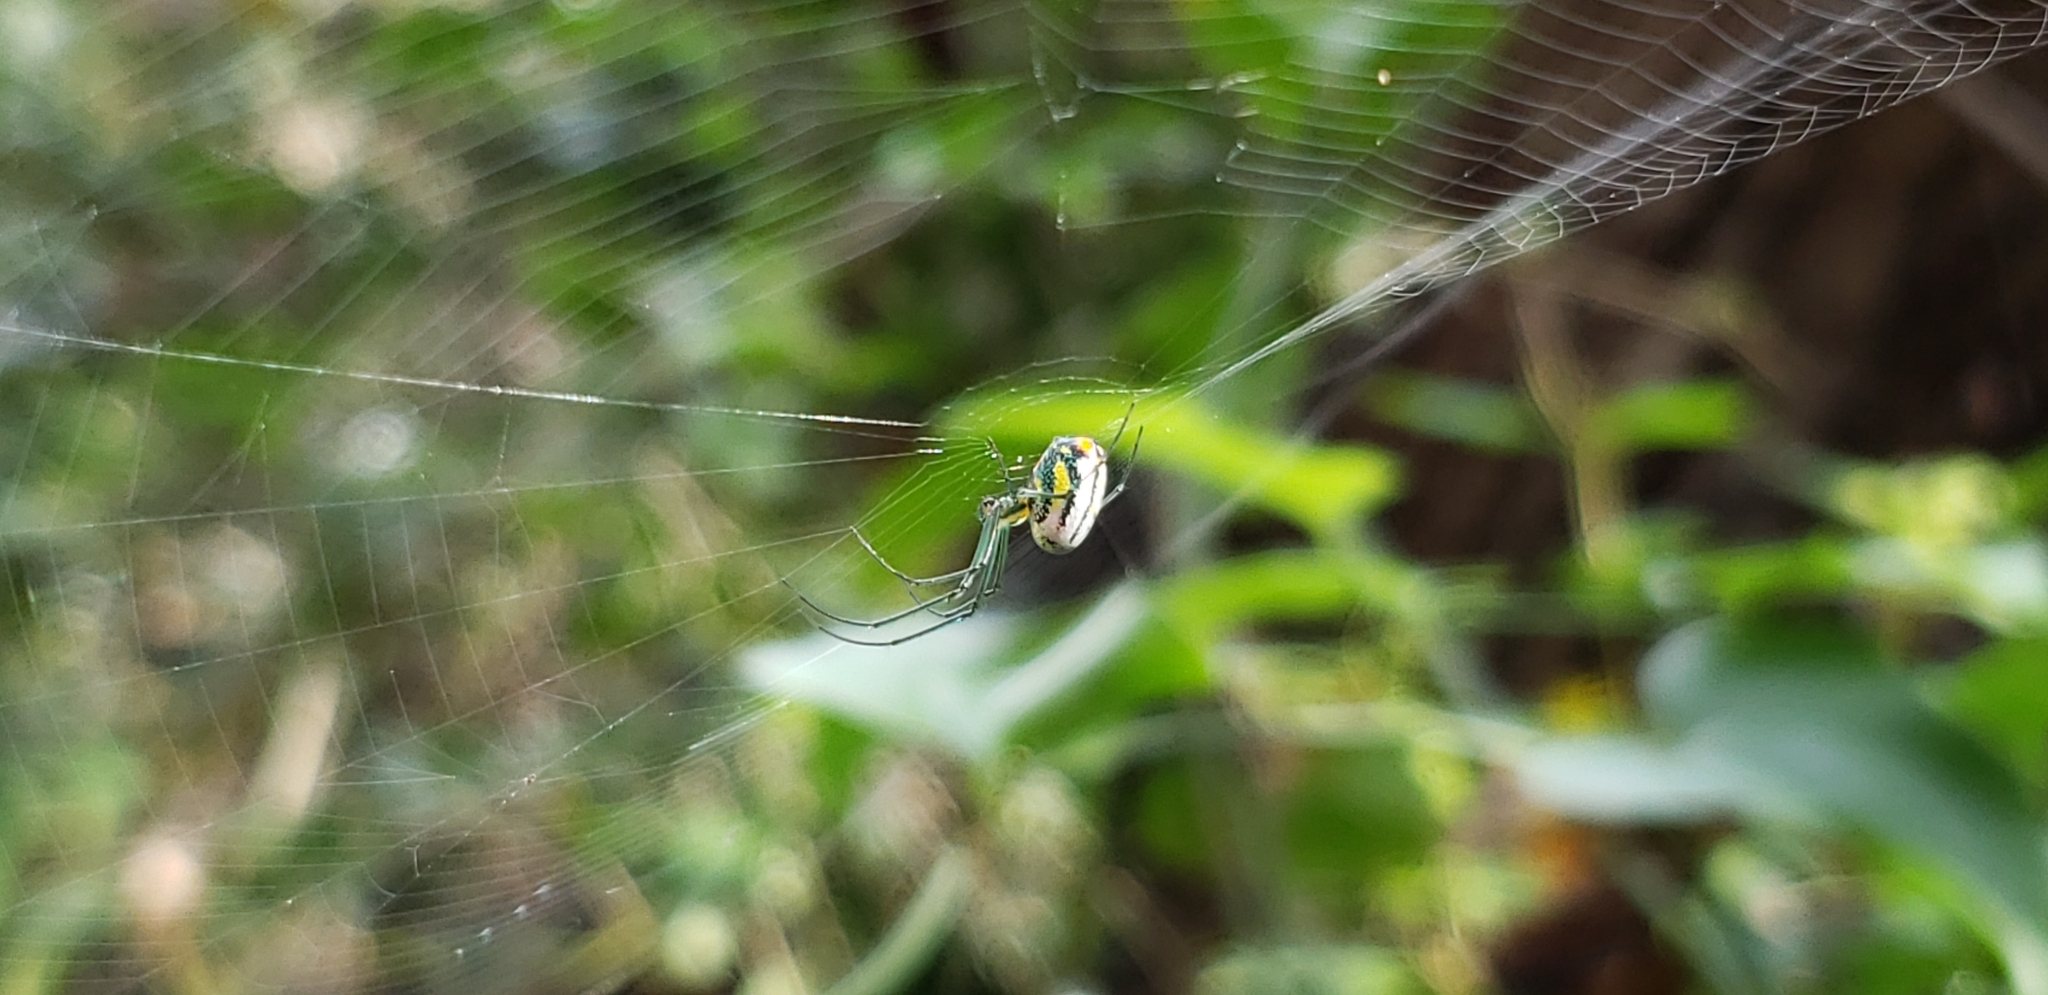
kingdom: Animalia
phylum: Arthropoda
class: Arachnida
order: Araneae
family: Tetragnathidae
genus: Leucauge
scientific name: Leucauge argyrobapta
